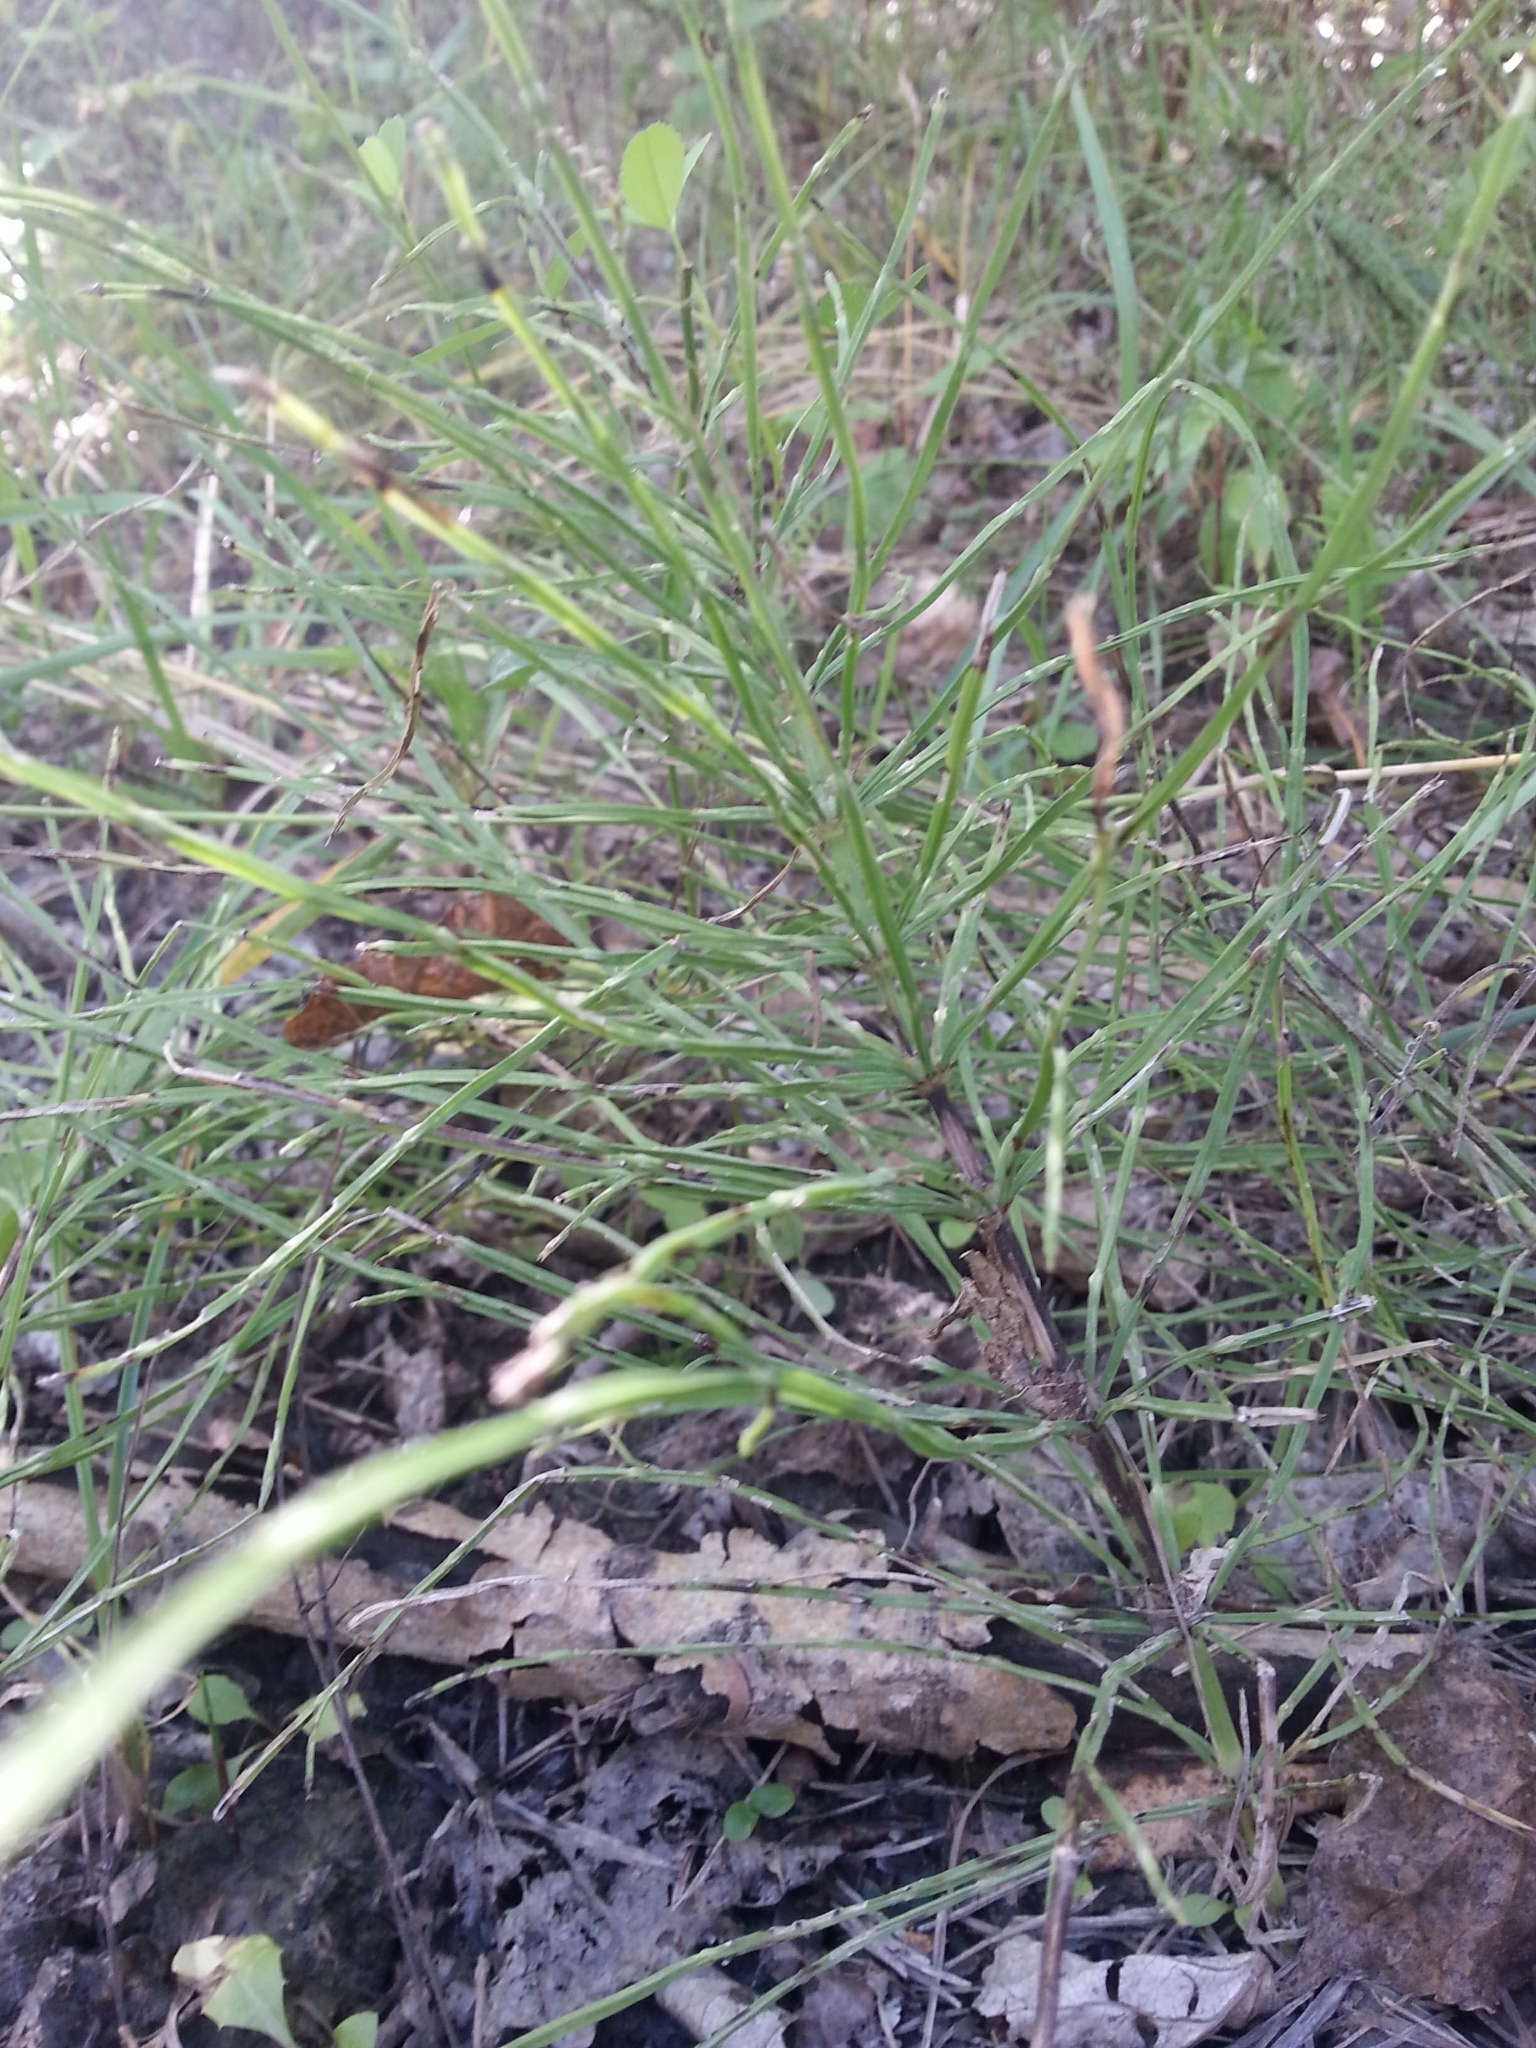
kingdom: Plantae
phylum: Tracheophyta
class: Polypodiopsida
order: Equisetales
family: Equisetaceae
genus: Equisetum
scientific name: Equisetum arvense
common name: Field horsetail
